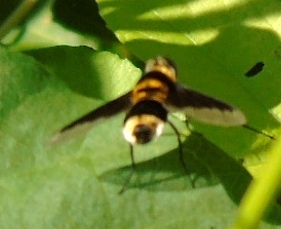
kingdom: Animalia
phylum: Arthropoda
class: Insecta
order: Diptera
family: Bombyliidae
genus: Ins
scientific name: Ins celeris
